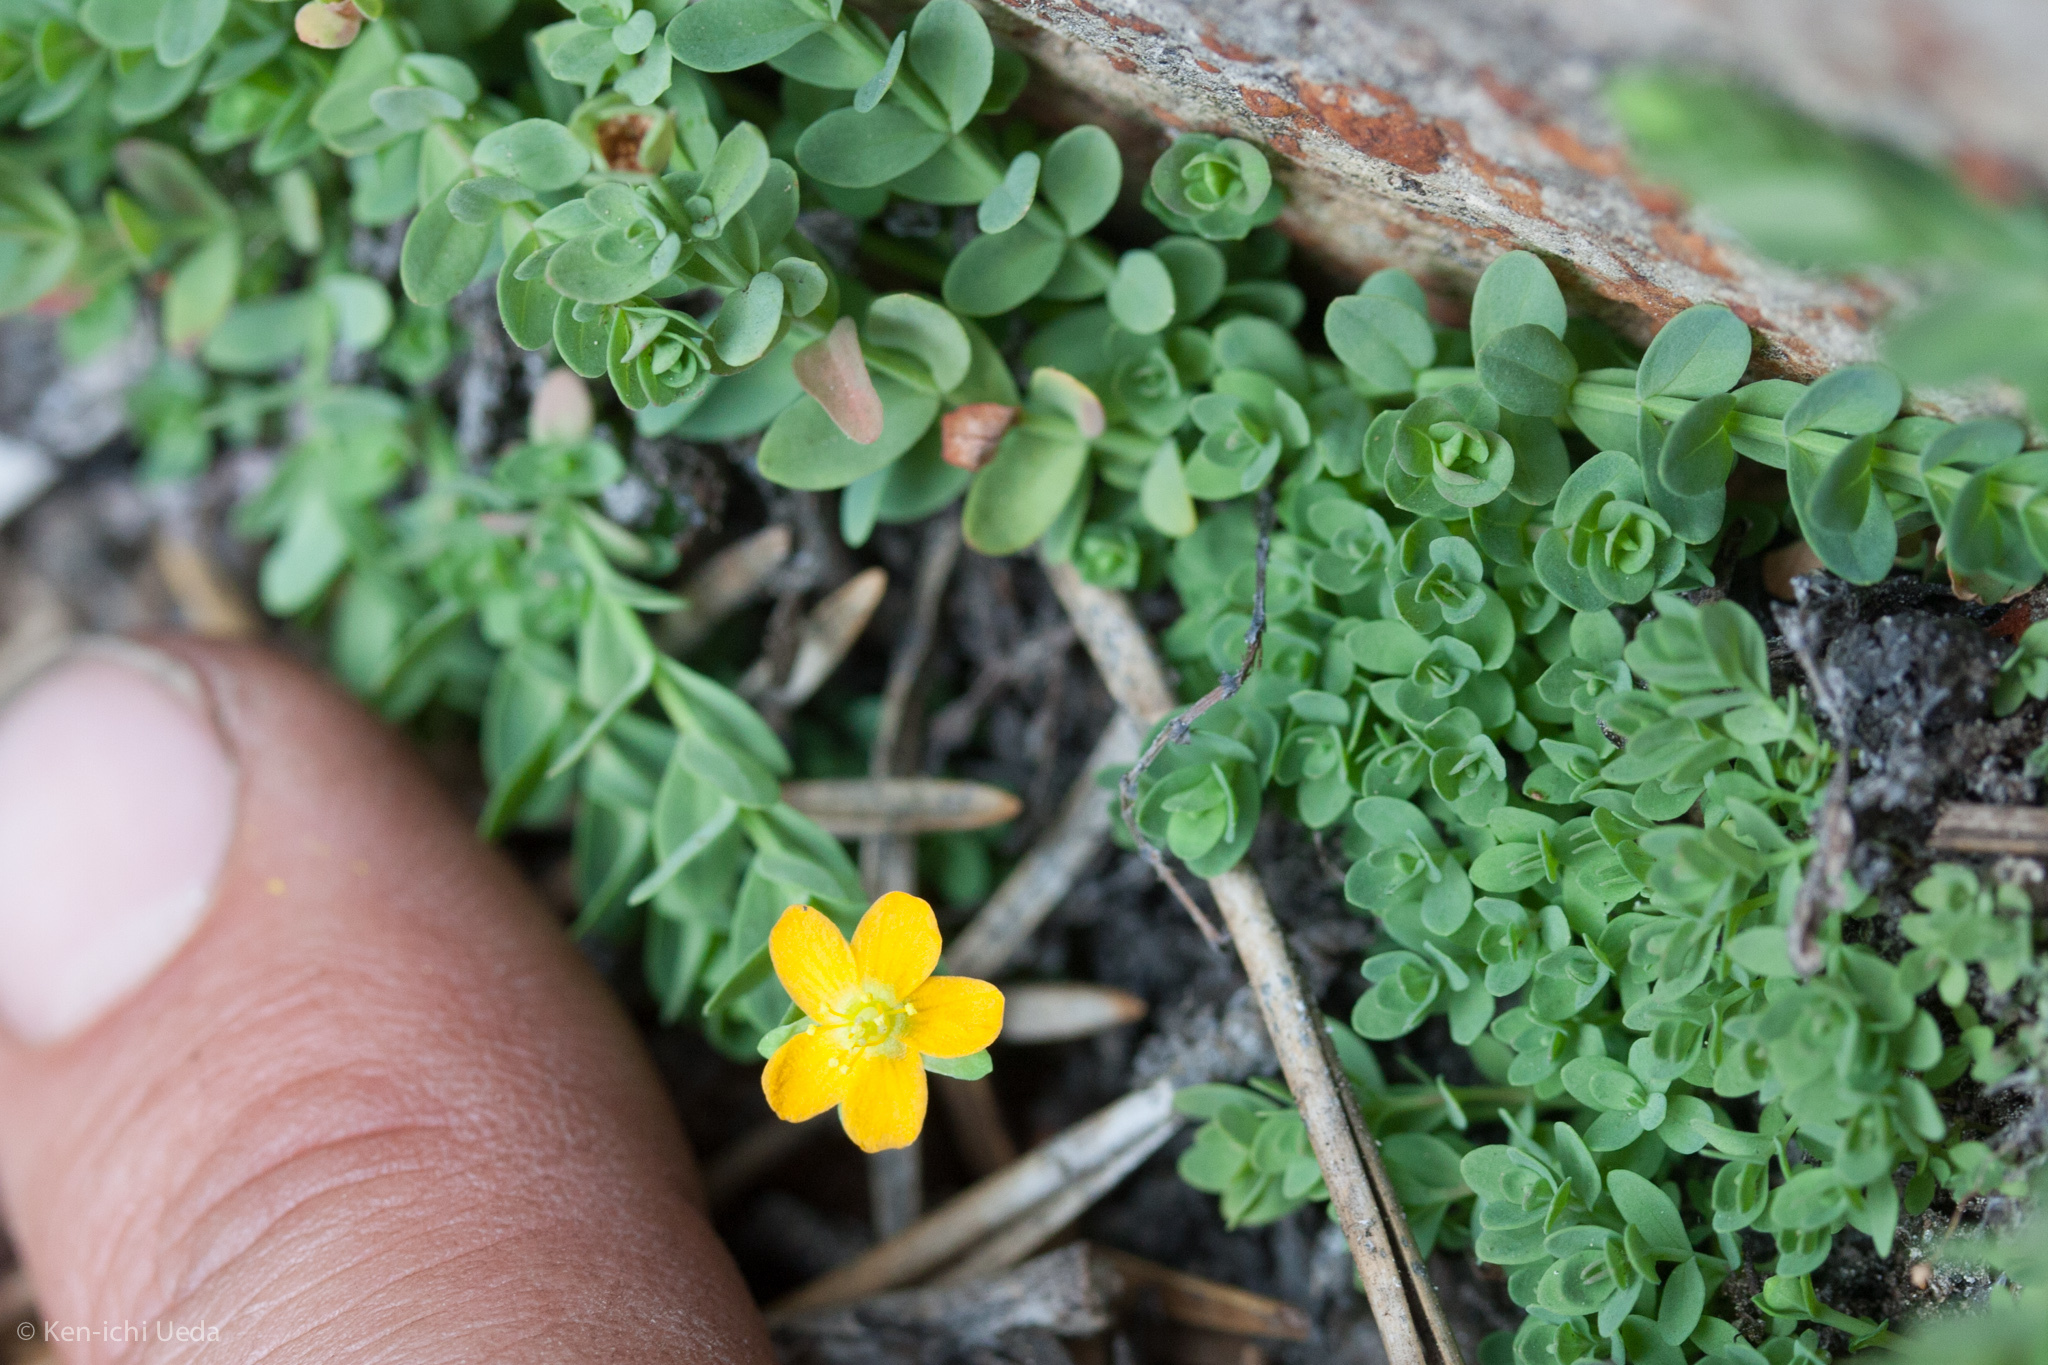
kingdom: Plantae
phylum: Tracheophyta
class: Magnoliopsida
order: Malpighiales
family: Hypericaceae
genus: Hypericum
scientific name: Hypericum anagalloides
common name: Bog st. john's-wort
